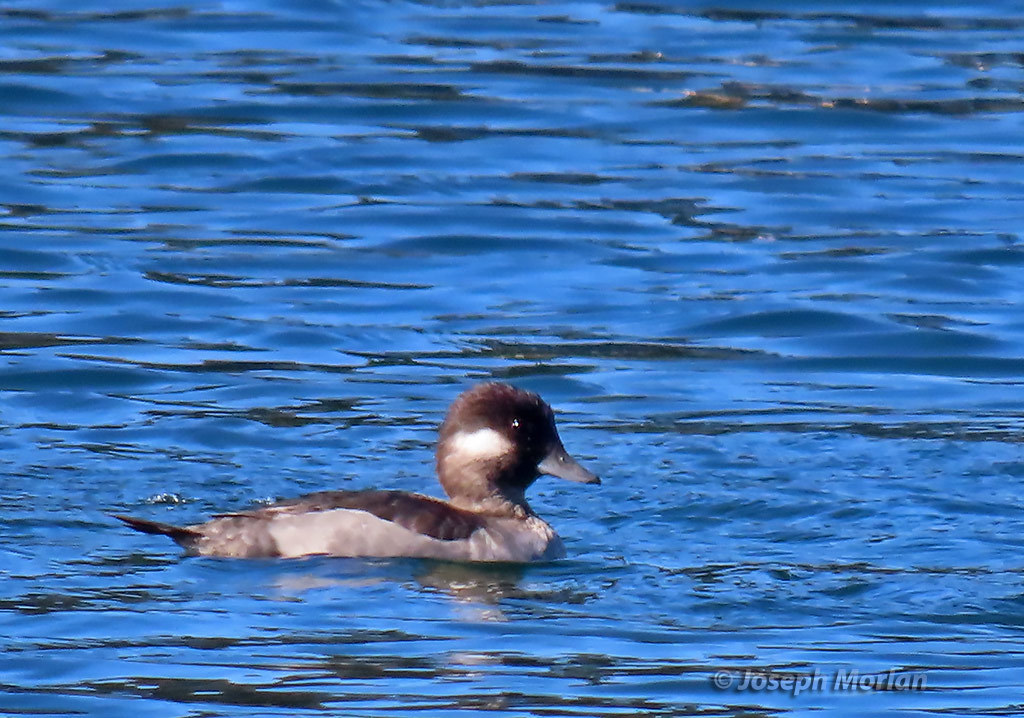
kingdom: Animalia
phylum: Chordata
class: Aves
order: Anseriformes
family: Anatidae
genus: Bucephala
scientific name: Bucephala albeola
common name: Bufflehead
